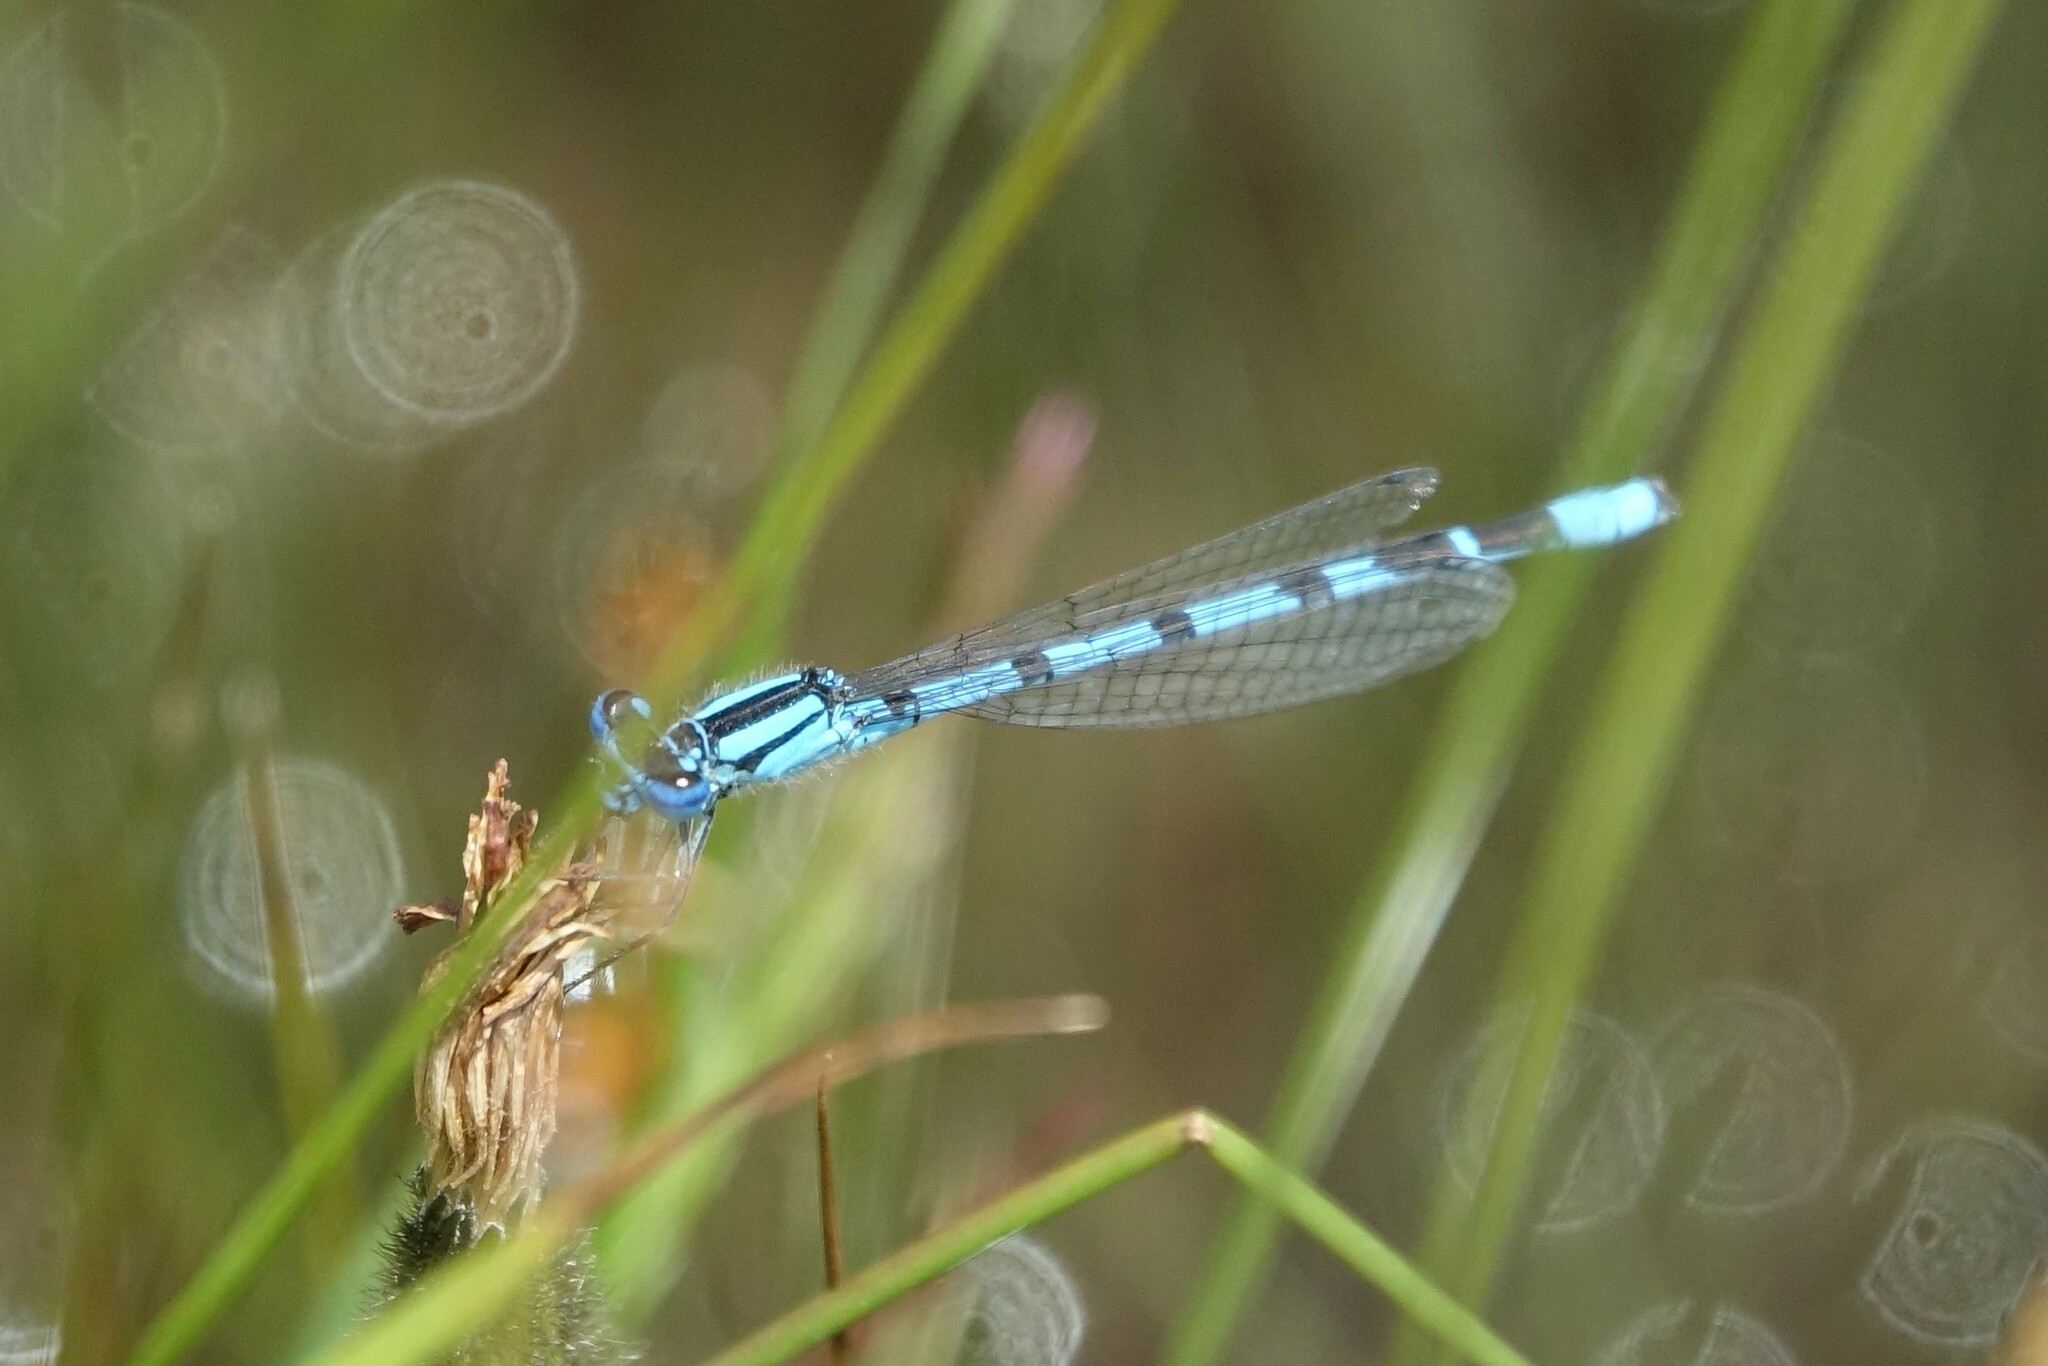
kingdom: Animalia
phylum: Arthropoda
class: Insecta
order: Odonata
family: Coenagrionidae
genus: Enallagma
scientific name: Enallagma cyathigerum
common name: Common blue damselfly
